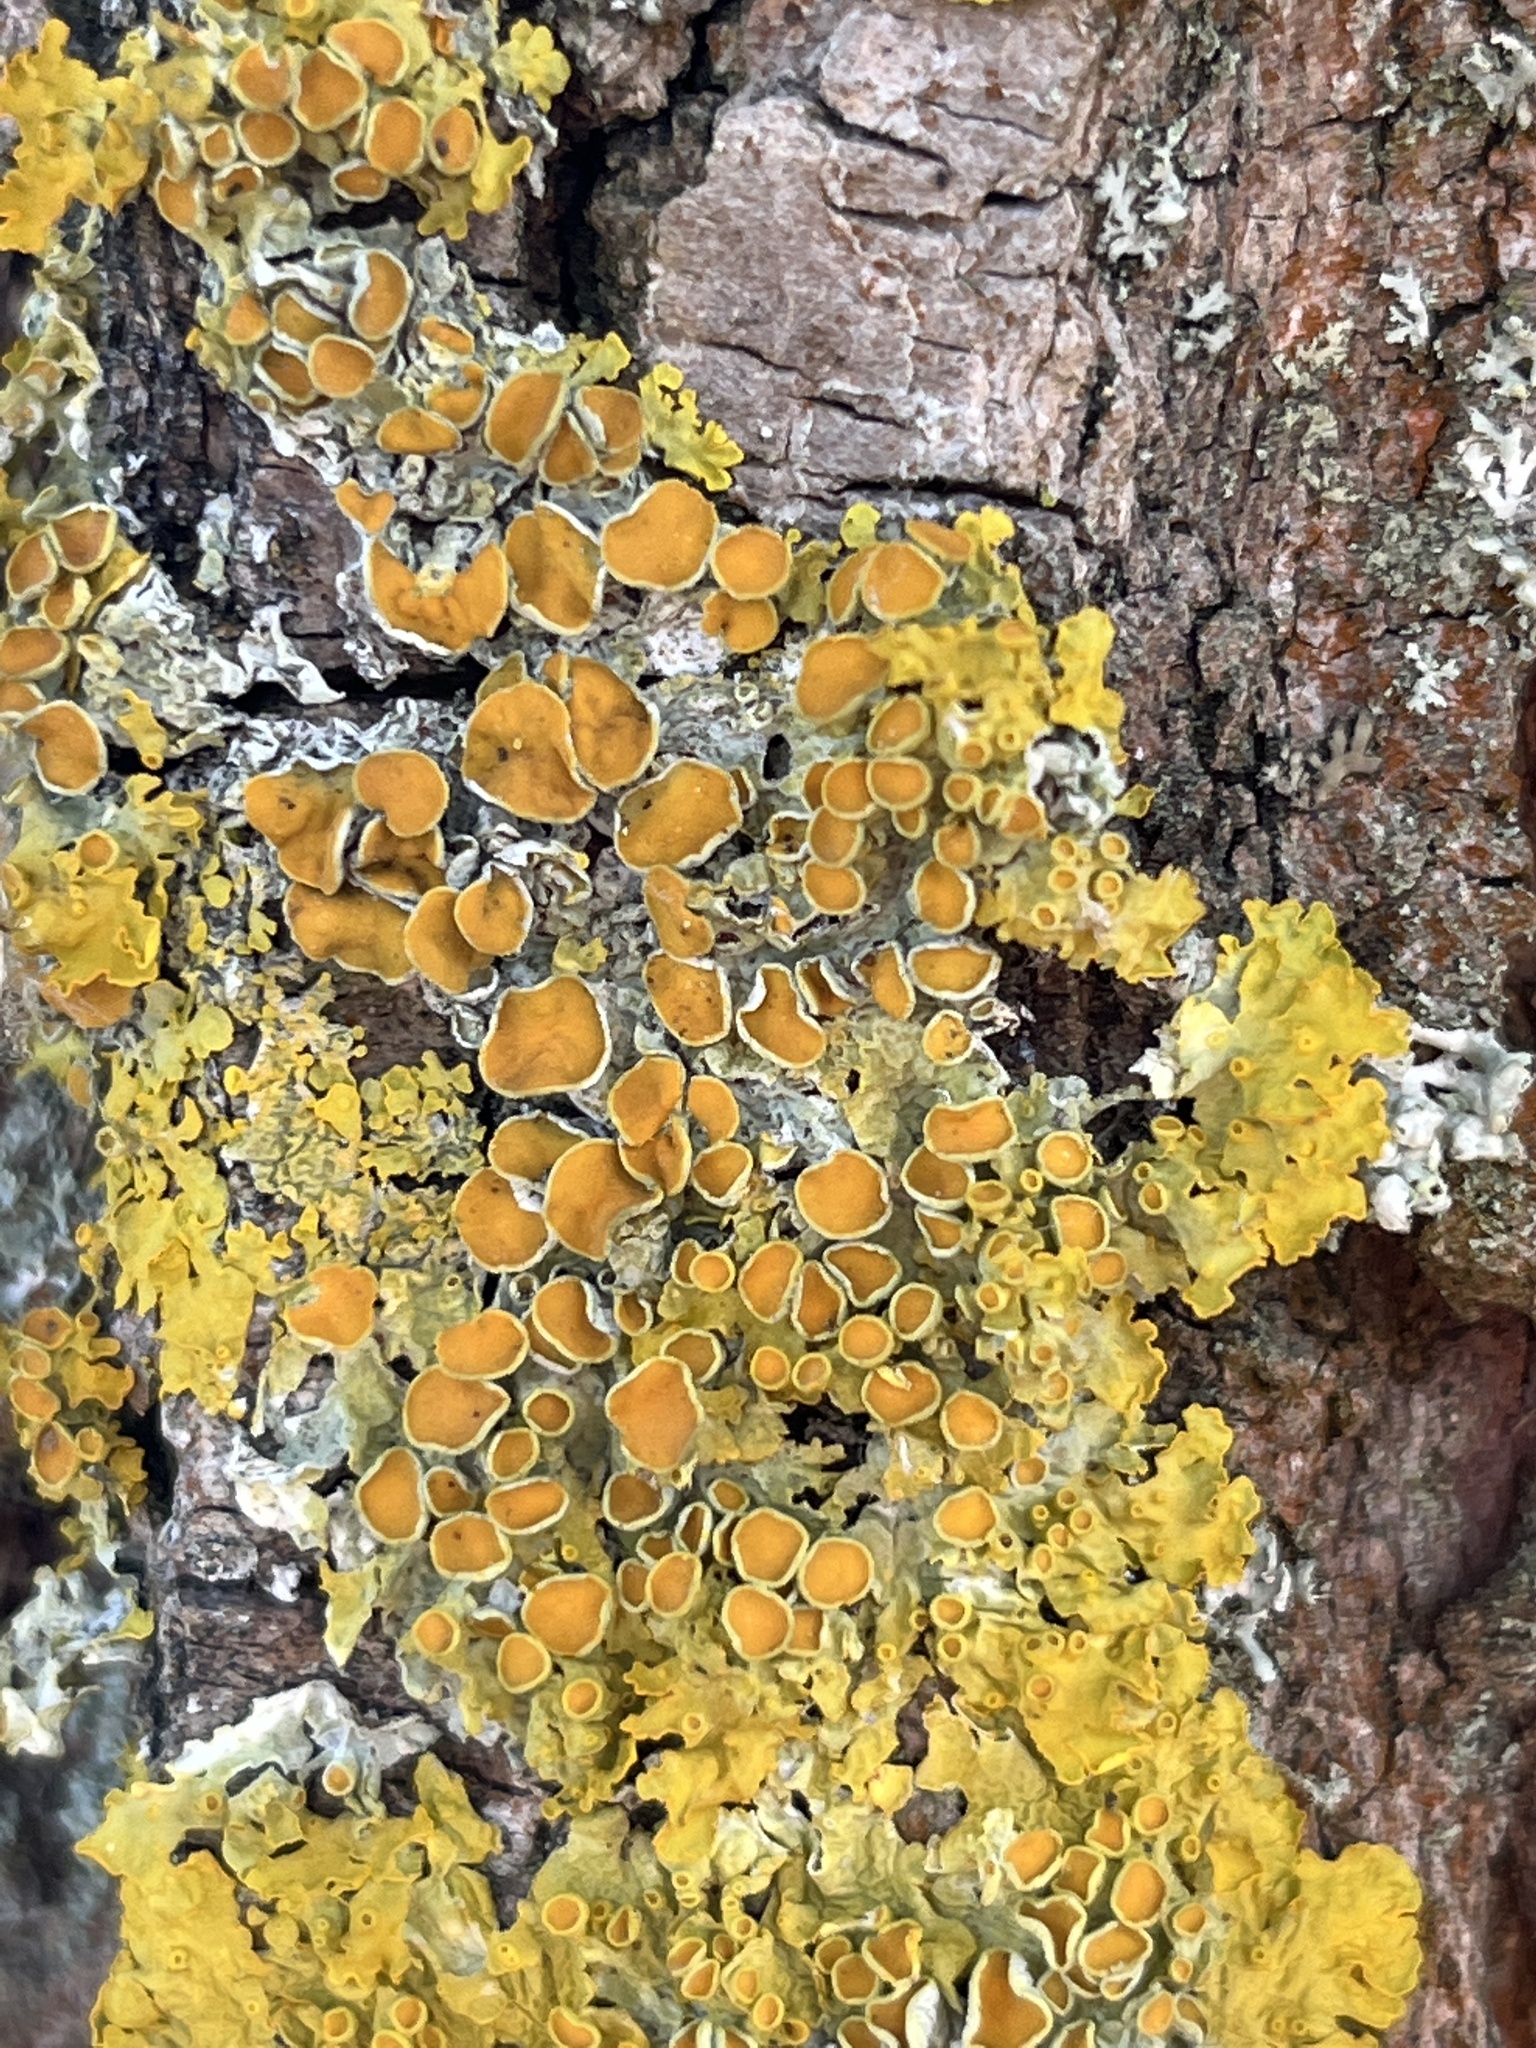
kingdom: Fungi
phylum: Ascomycota
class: Lecanoromycetes
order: Teloschistales
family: Teloschistaceae
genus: Xanthoria
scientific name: Xanthoria parietina
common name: Common orange lichen
